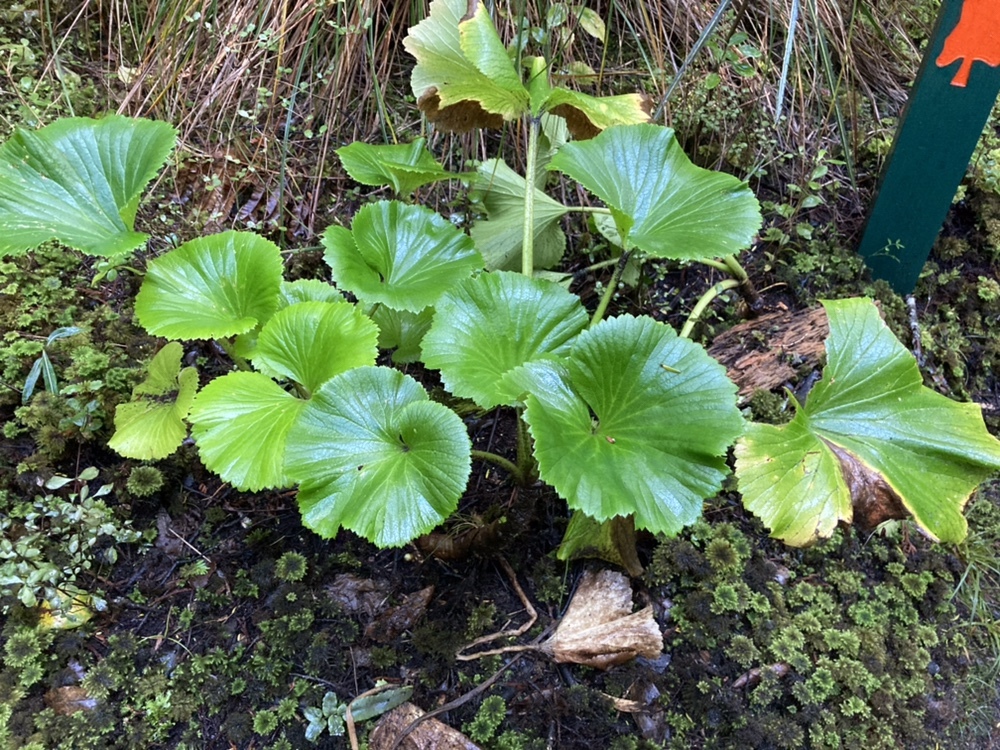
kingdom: Plantae
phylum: Tracheophyta
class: Magnoliopsida
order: Apiales
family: Apiaceae
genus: Azorella
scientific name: Azorella lyallii
